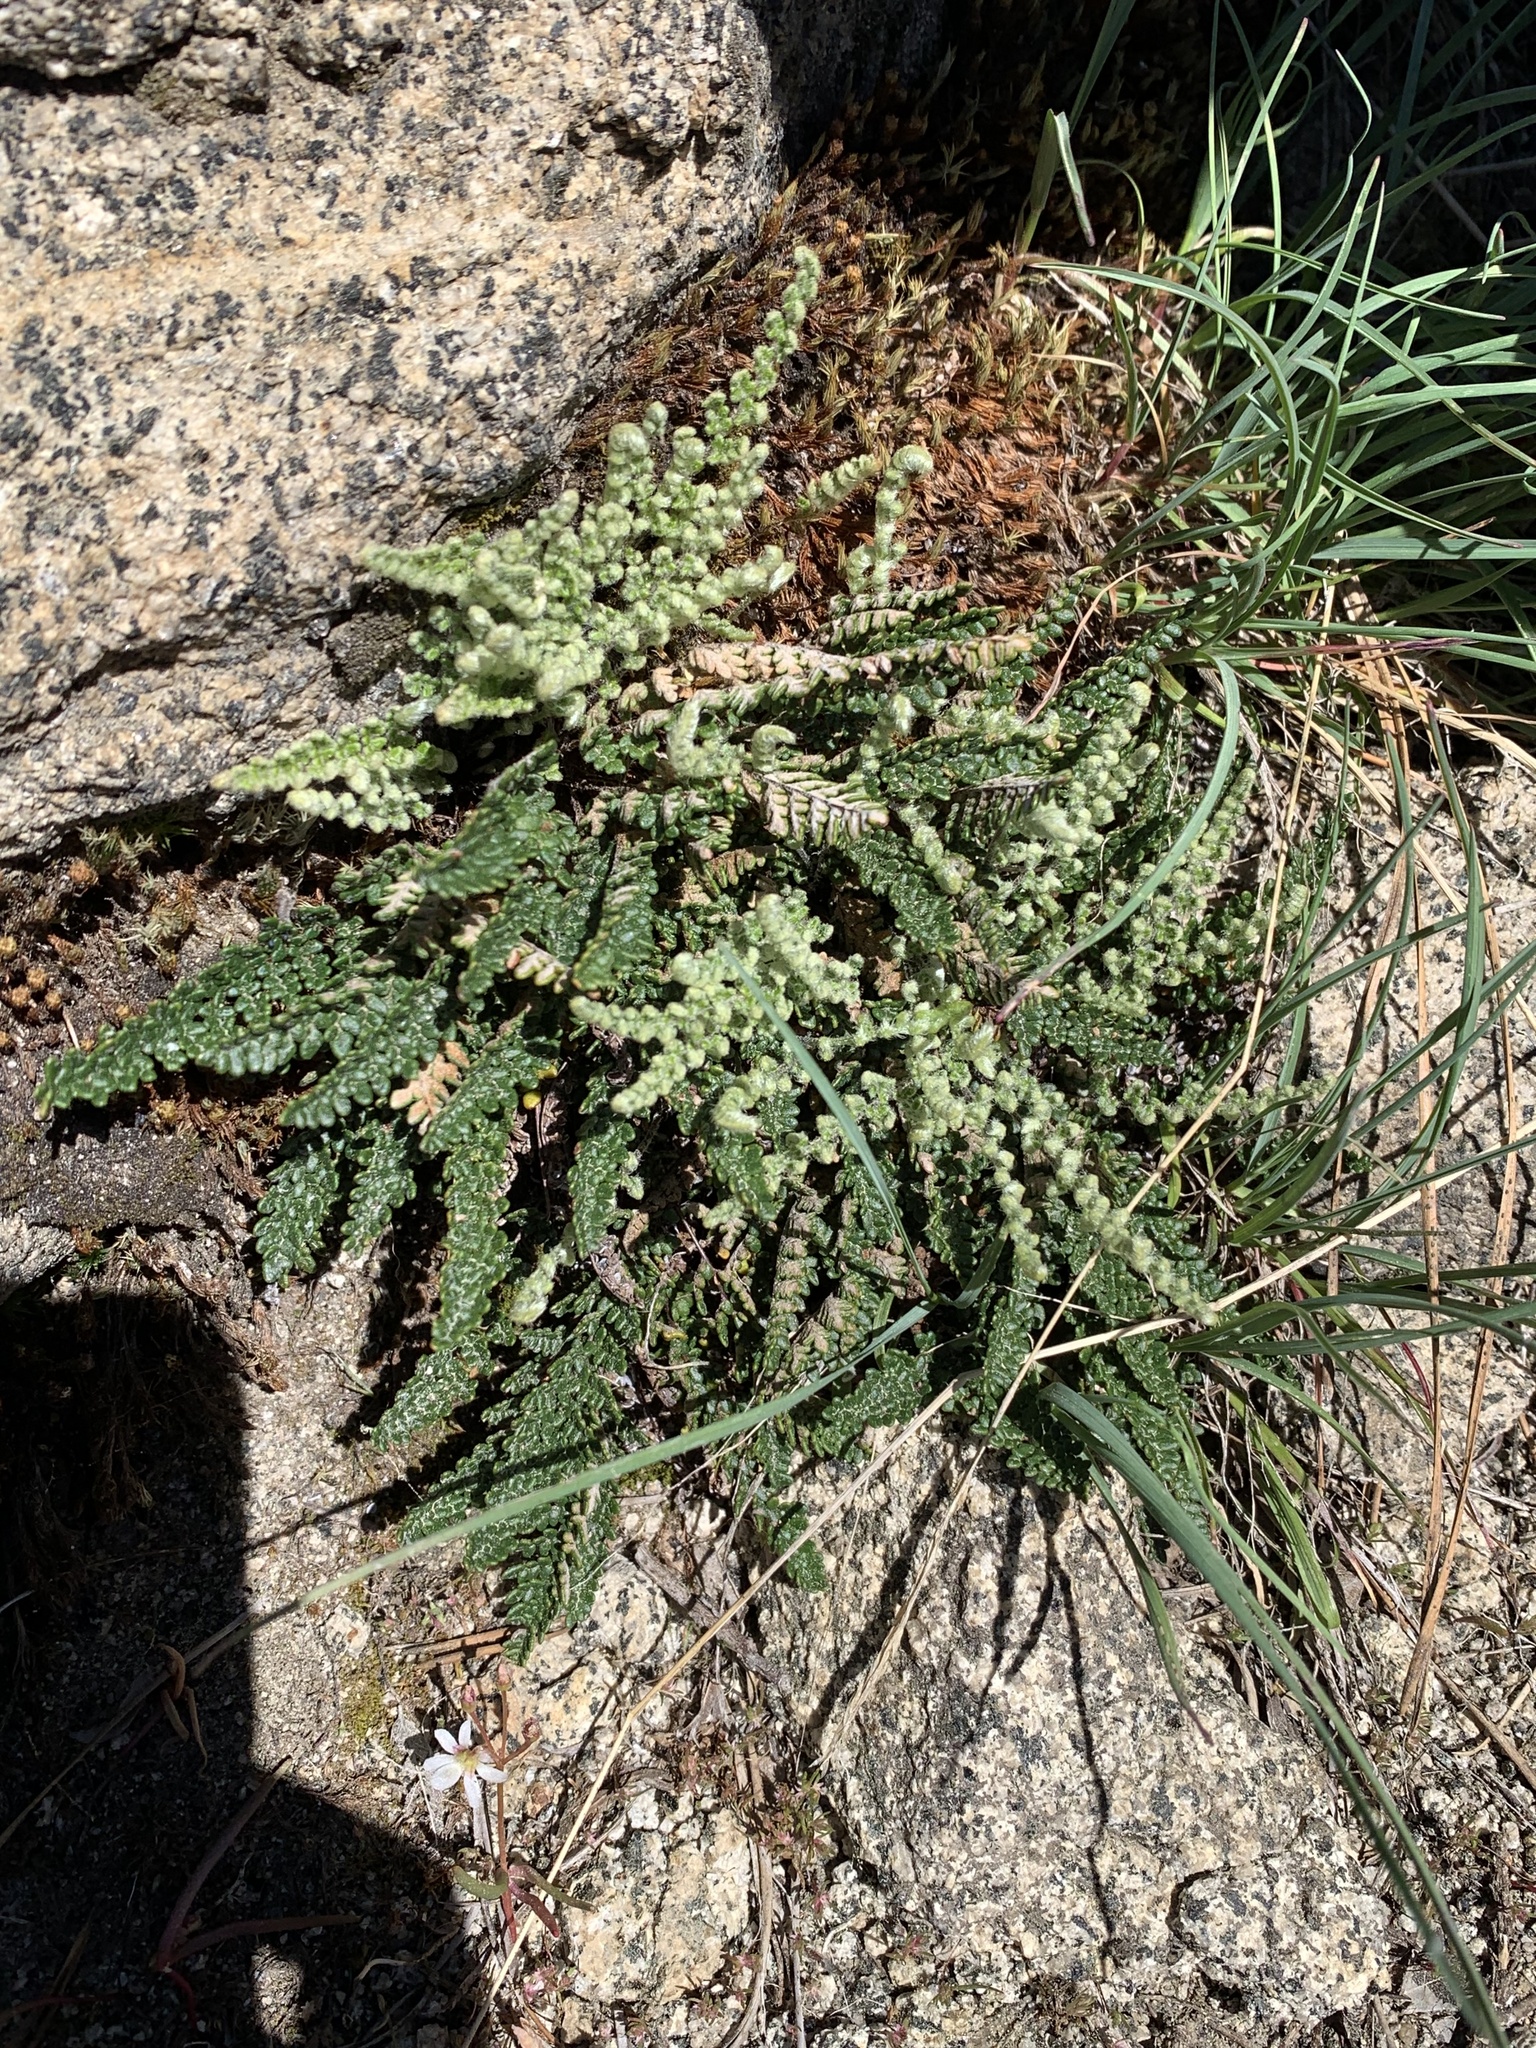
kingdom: Plantae
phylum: Tracheophyta
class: Polypodiopsida
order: Polypodiales
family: Pteridaceae
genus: Myriopteris
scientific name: Myriopteris gracillima
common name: Lace fern
